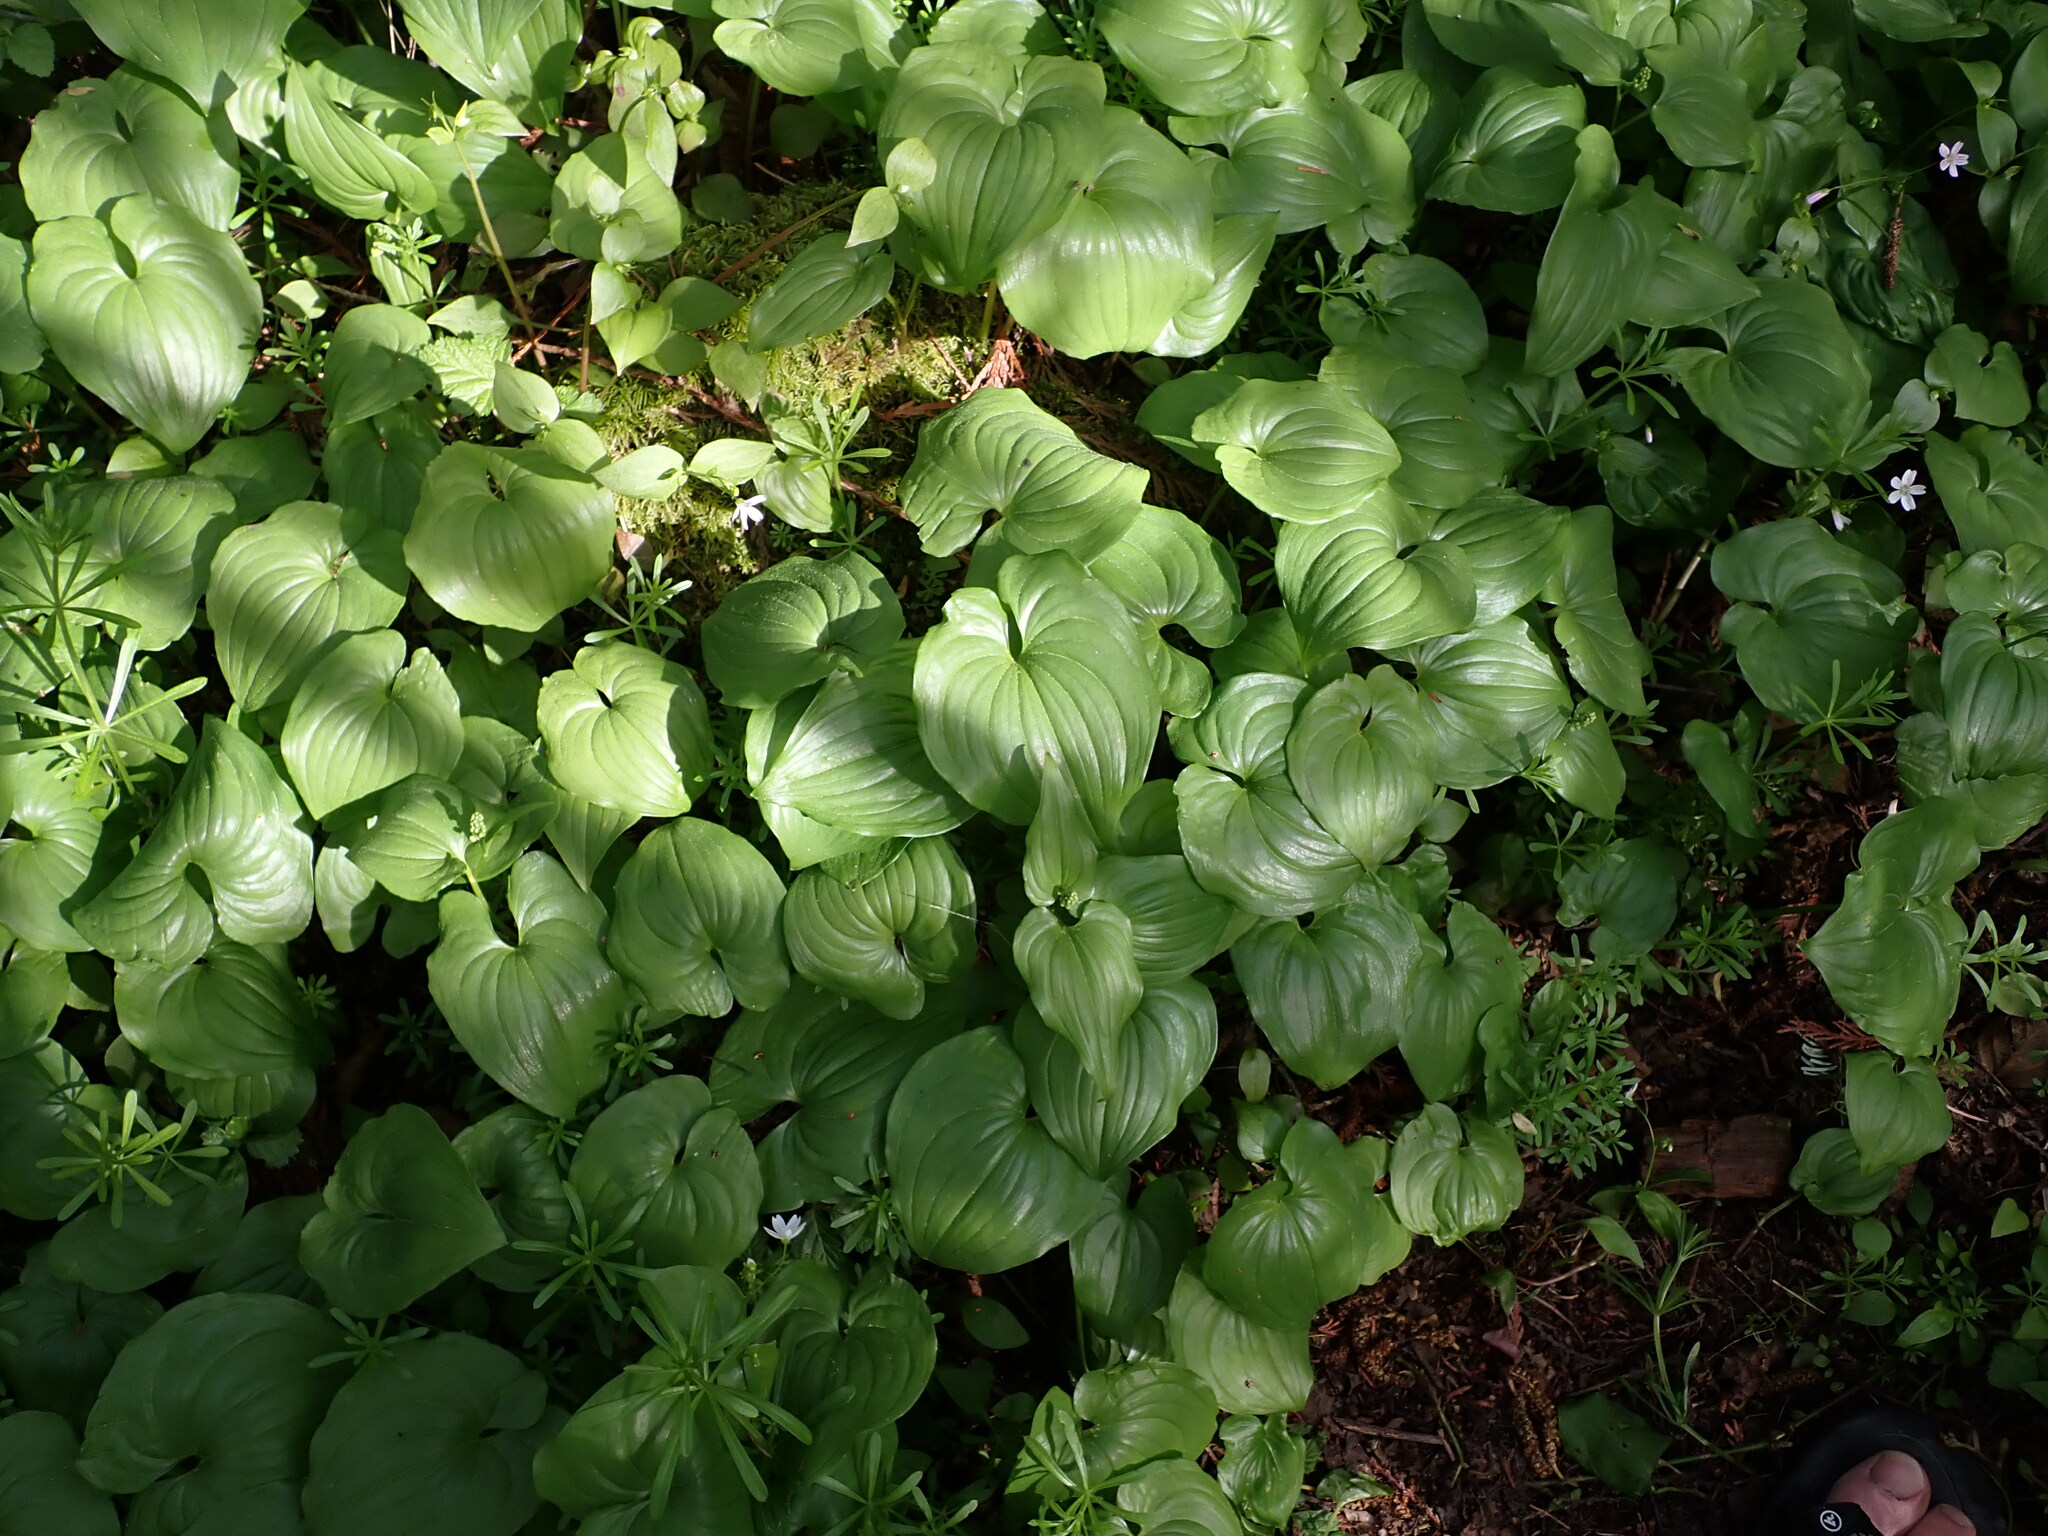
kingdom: Plantae
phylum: Tracheophyta
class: Liliopsida
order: Asparagales
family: Asparagaceae
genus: Maianthemum
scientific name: Maianthemum dilatatum
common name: False lily-of-the-valley
